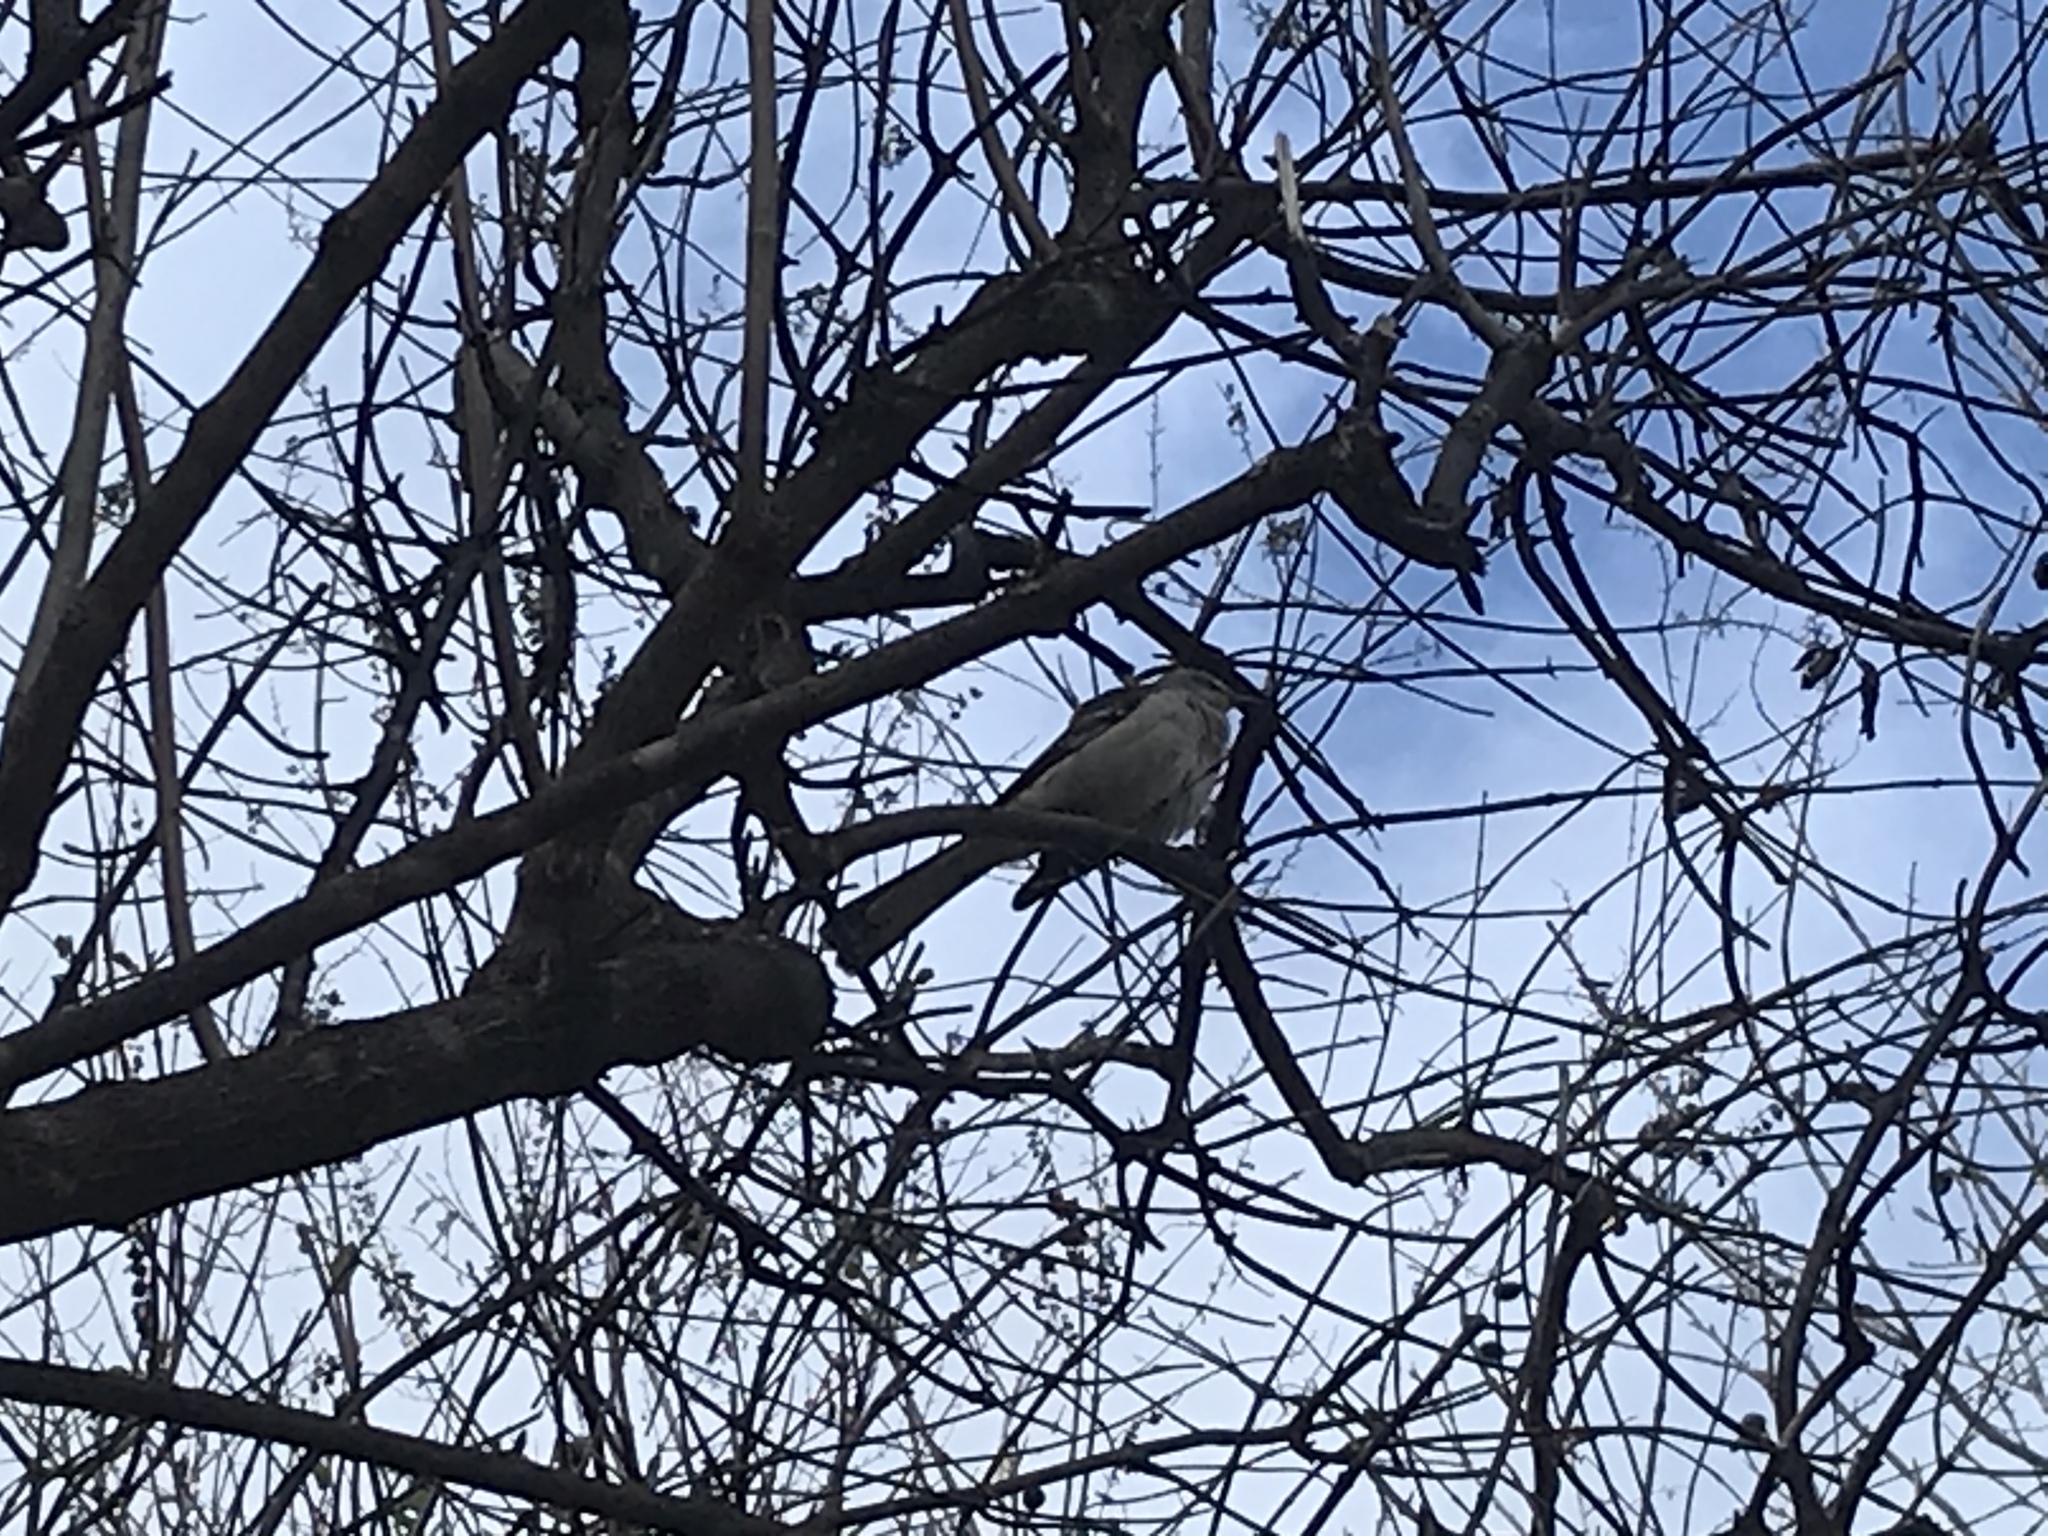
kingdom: Animalia
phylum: Chordata
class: Aves
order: Passeriformes
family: Mimidae
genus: Mimus
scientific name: Mimus polyglottos
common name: Northern mockingbird
